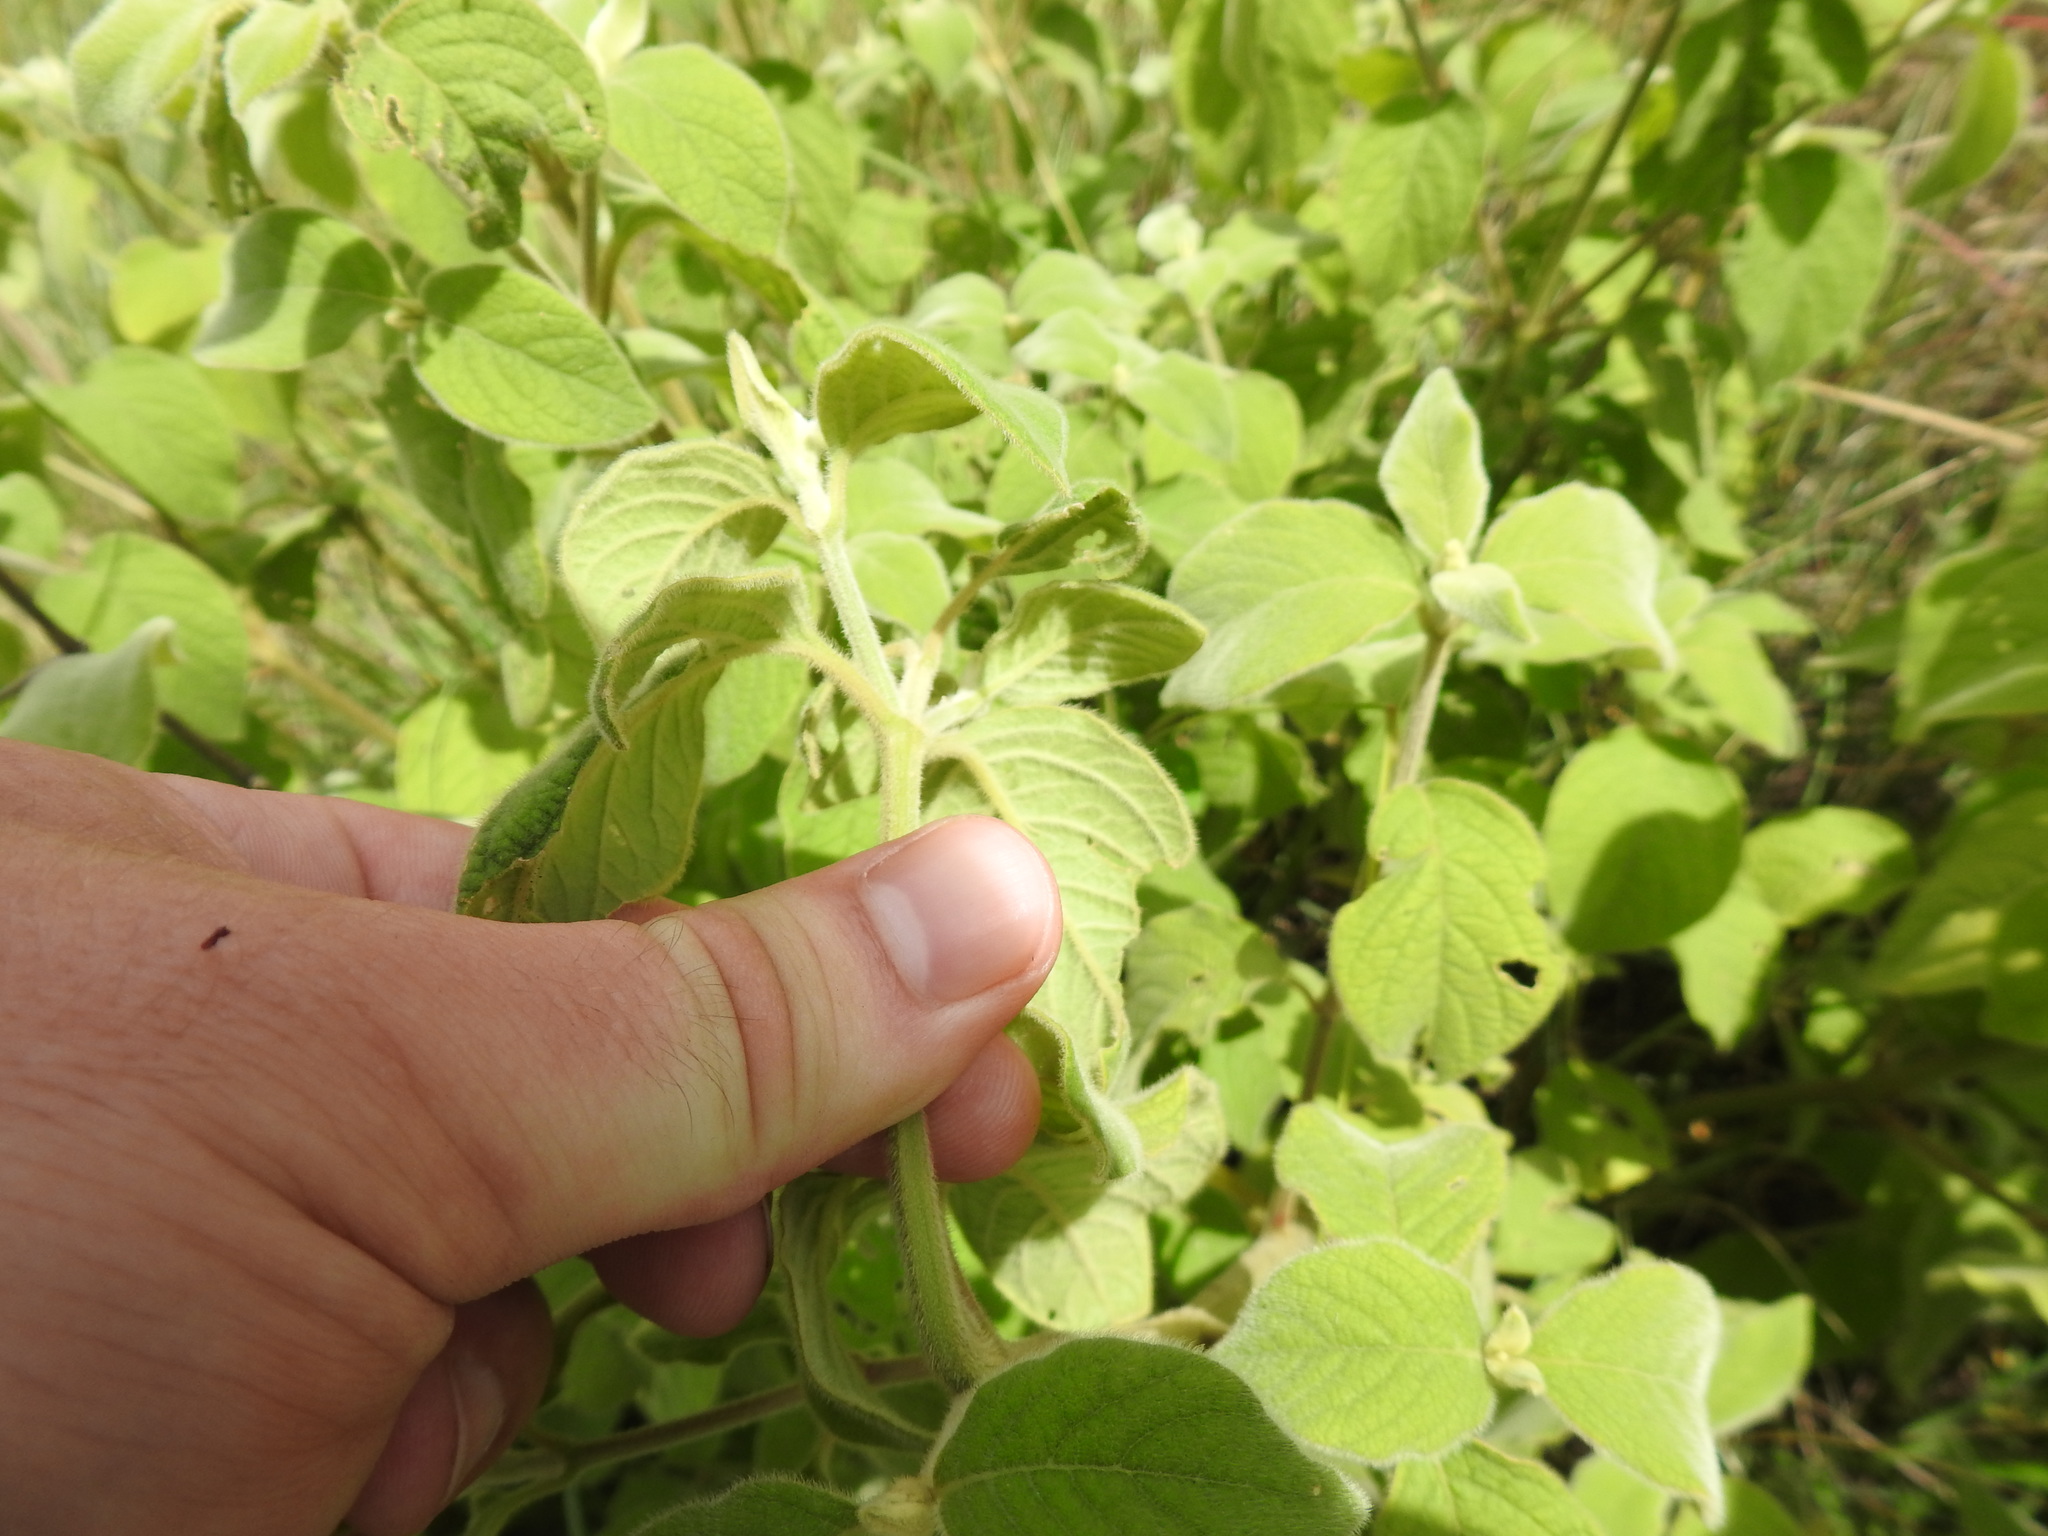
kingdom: Plantae
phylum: Tracheophyta
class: Magnoliopsida
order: Myrtales
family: Combretaceae
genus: Combretum
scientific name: Combretum molle
